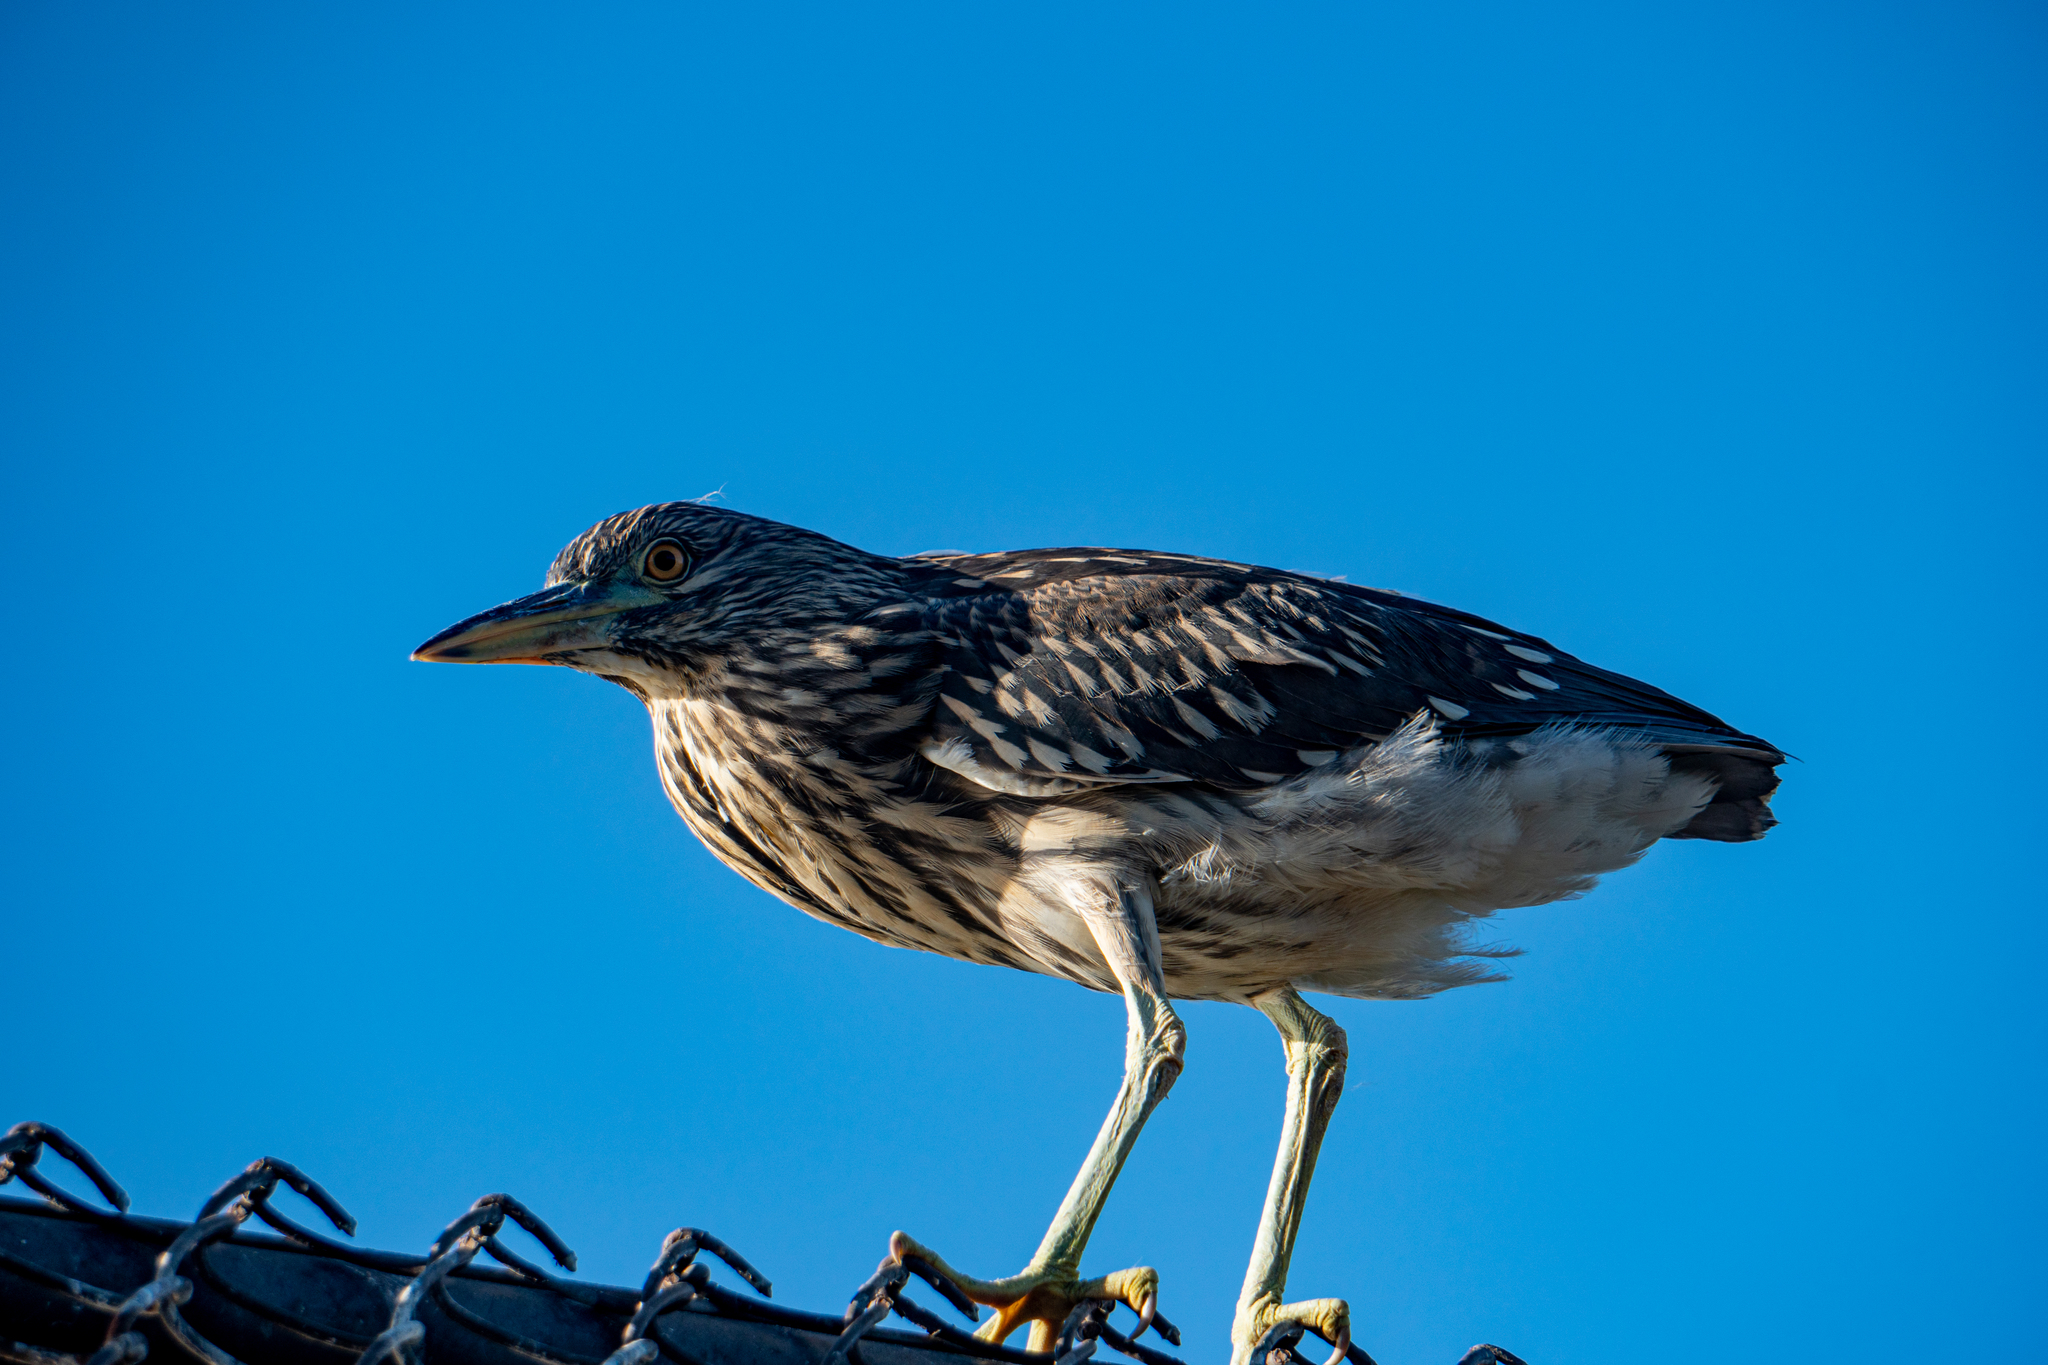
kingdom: Animalia
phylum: Chordata
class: Aves
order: Pelecaniformes
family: Ardeidae
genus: Nycticorax
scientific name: Nycticorax nycticorax
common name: Black-crowned night heron
